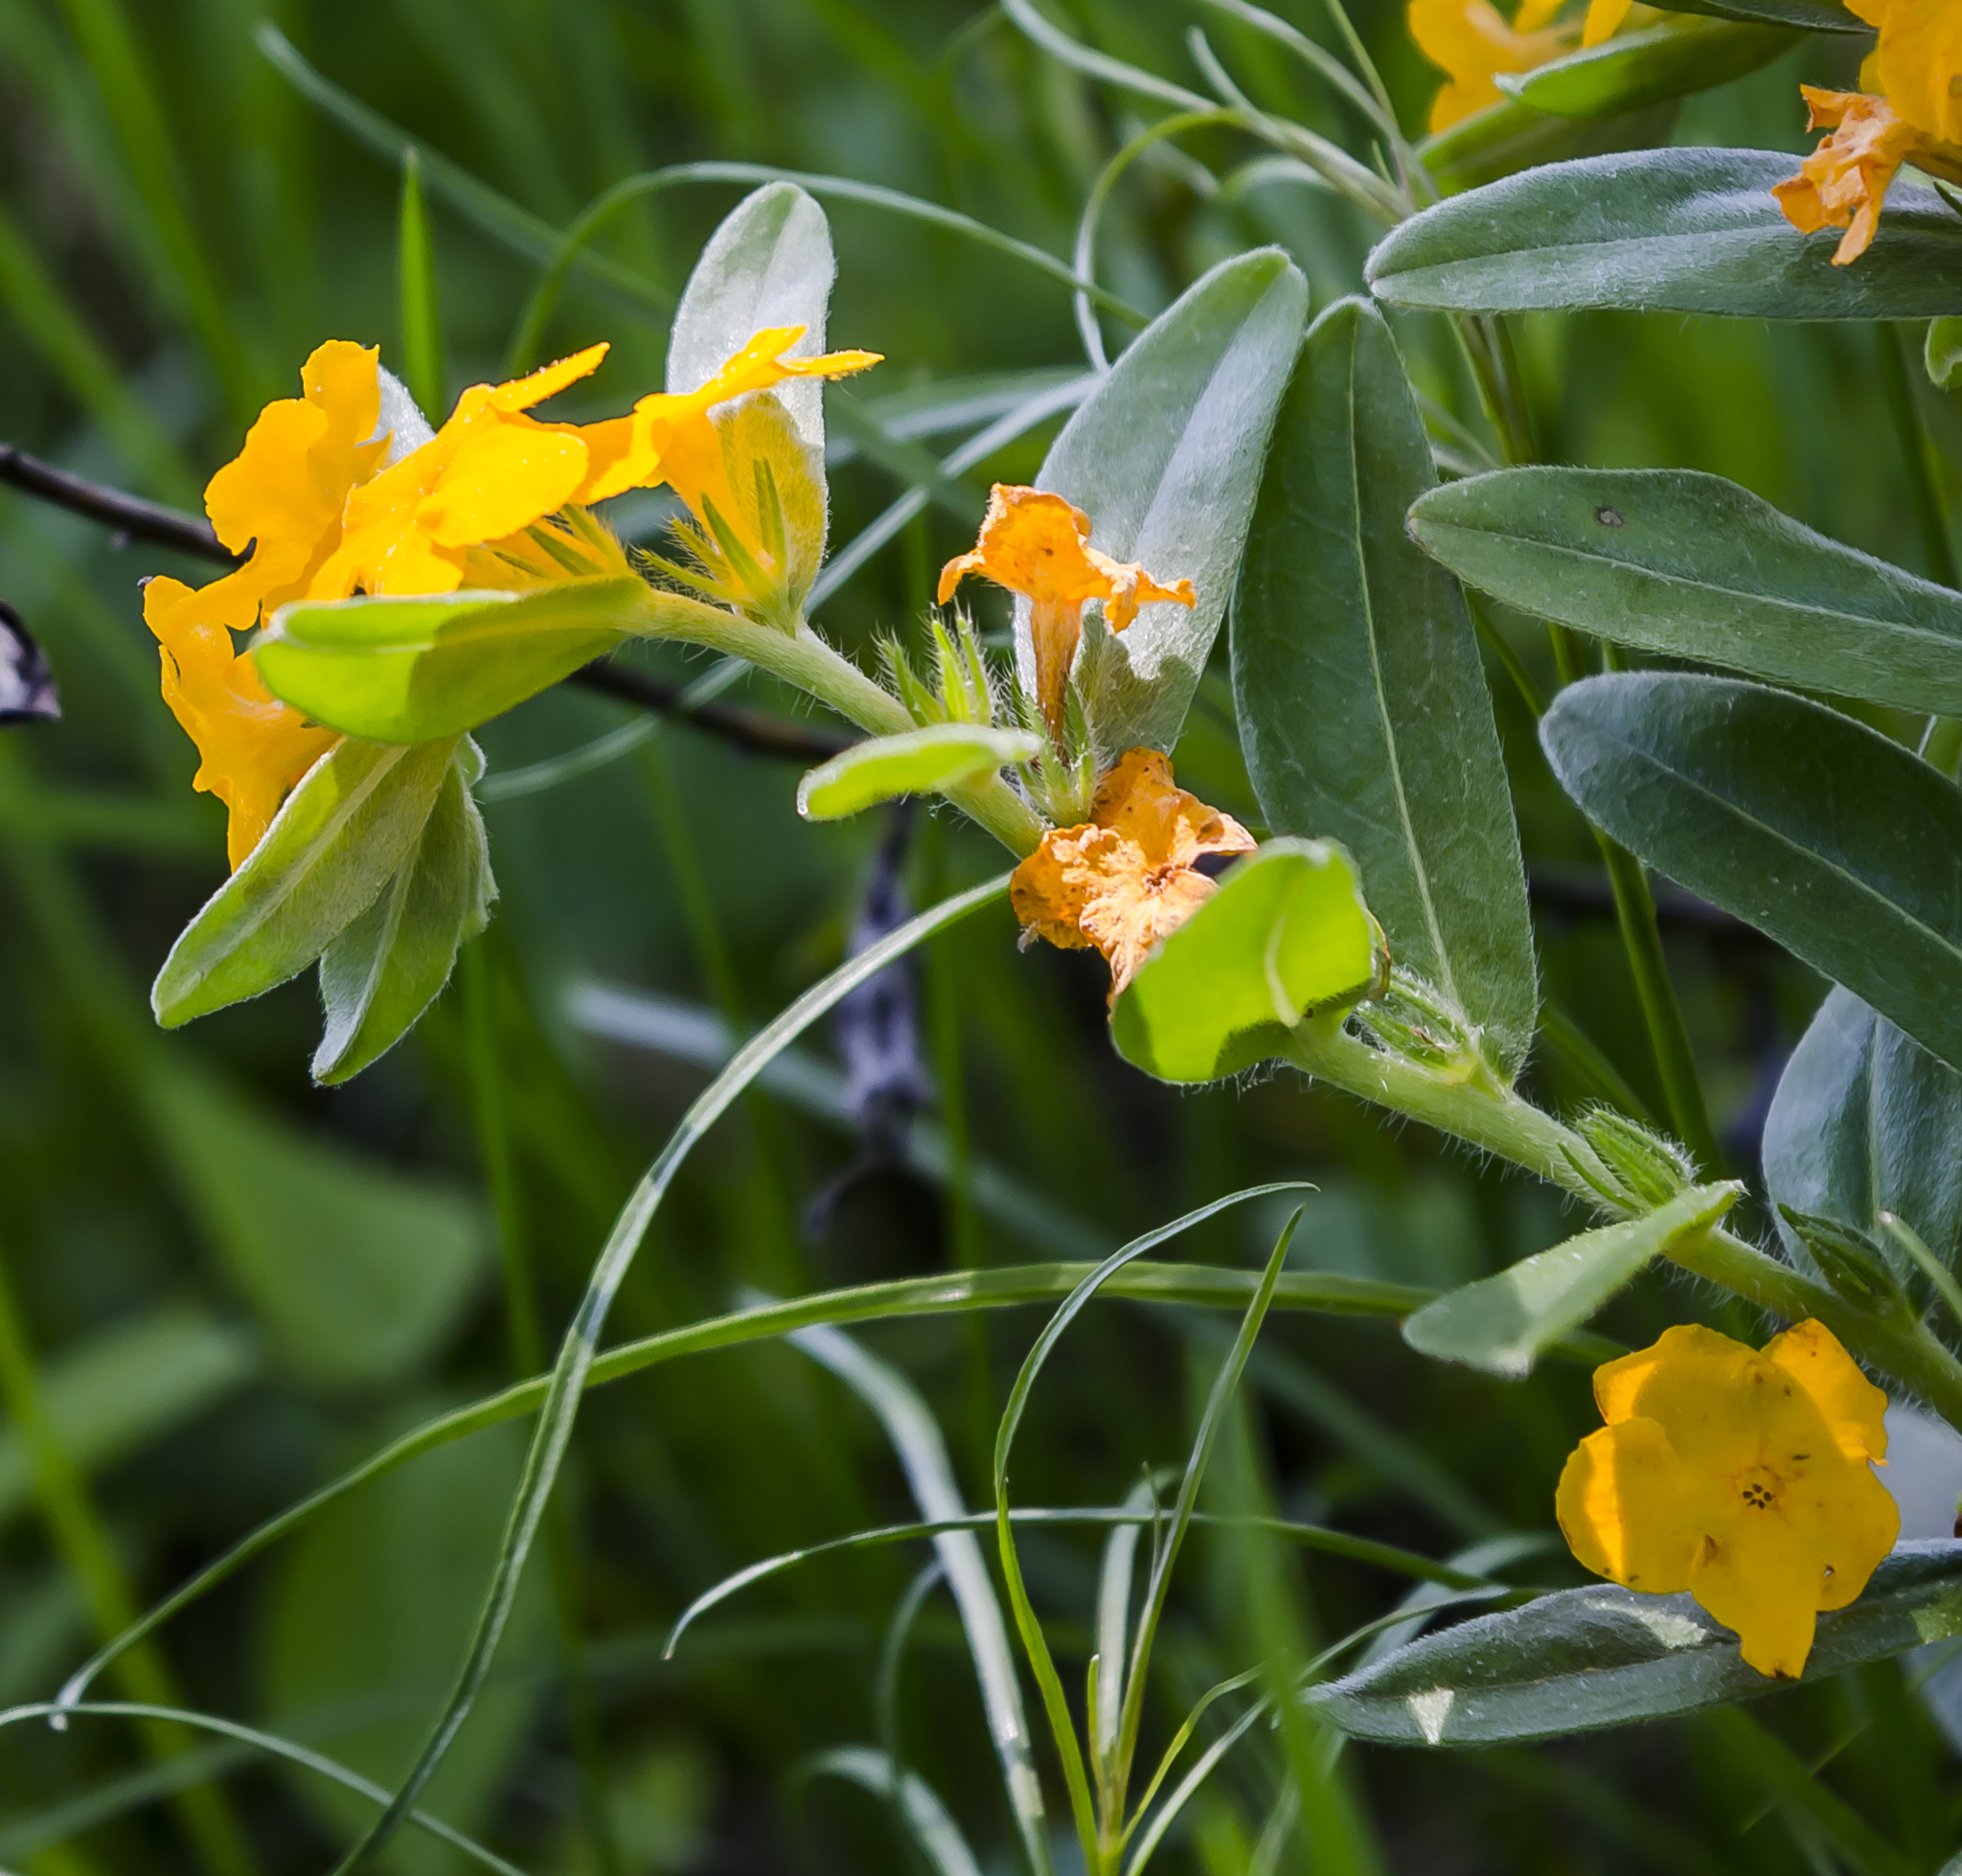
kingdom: Plantae
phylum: Tracheophyta
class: Magnoliopsida
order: Boraginales
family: Boraginaceae
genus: Lithospermum
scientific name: Lithospermum canescens
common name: Hoary puccoon
